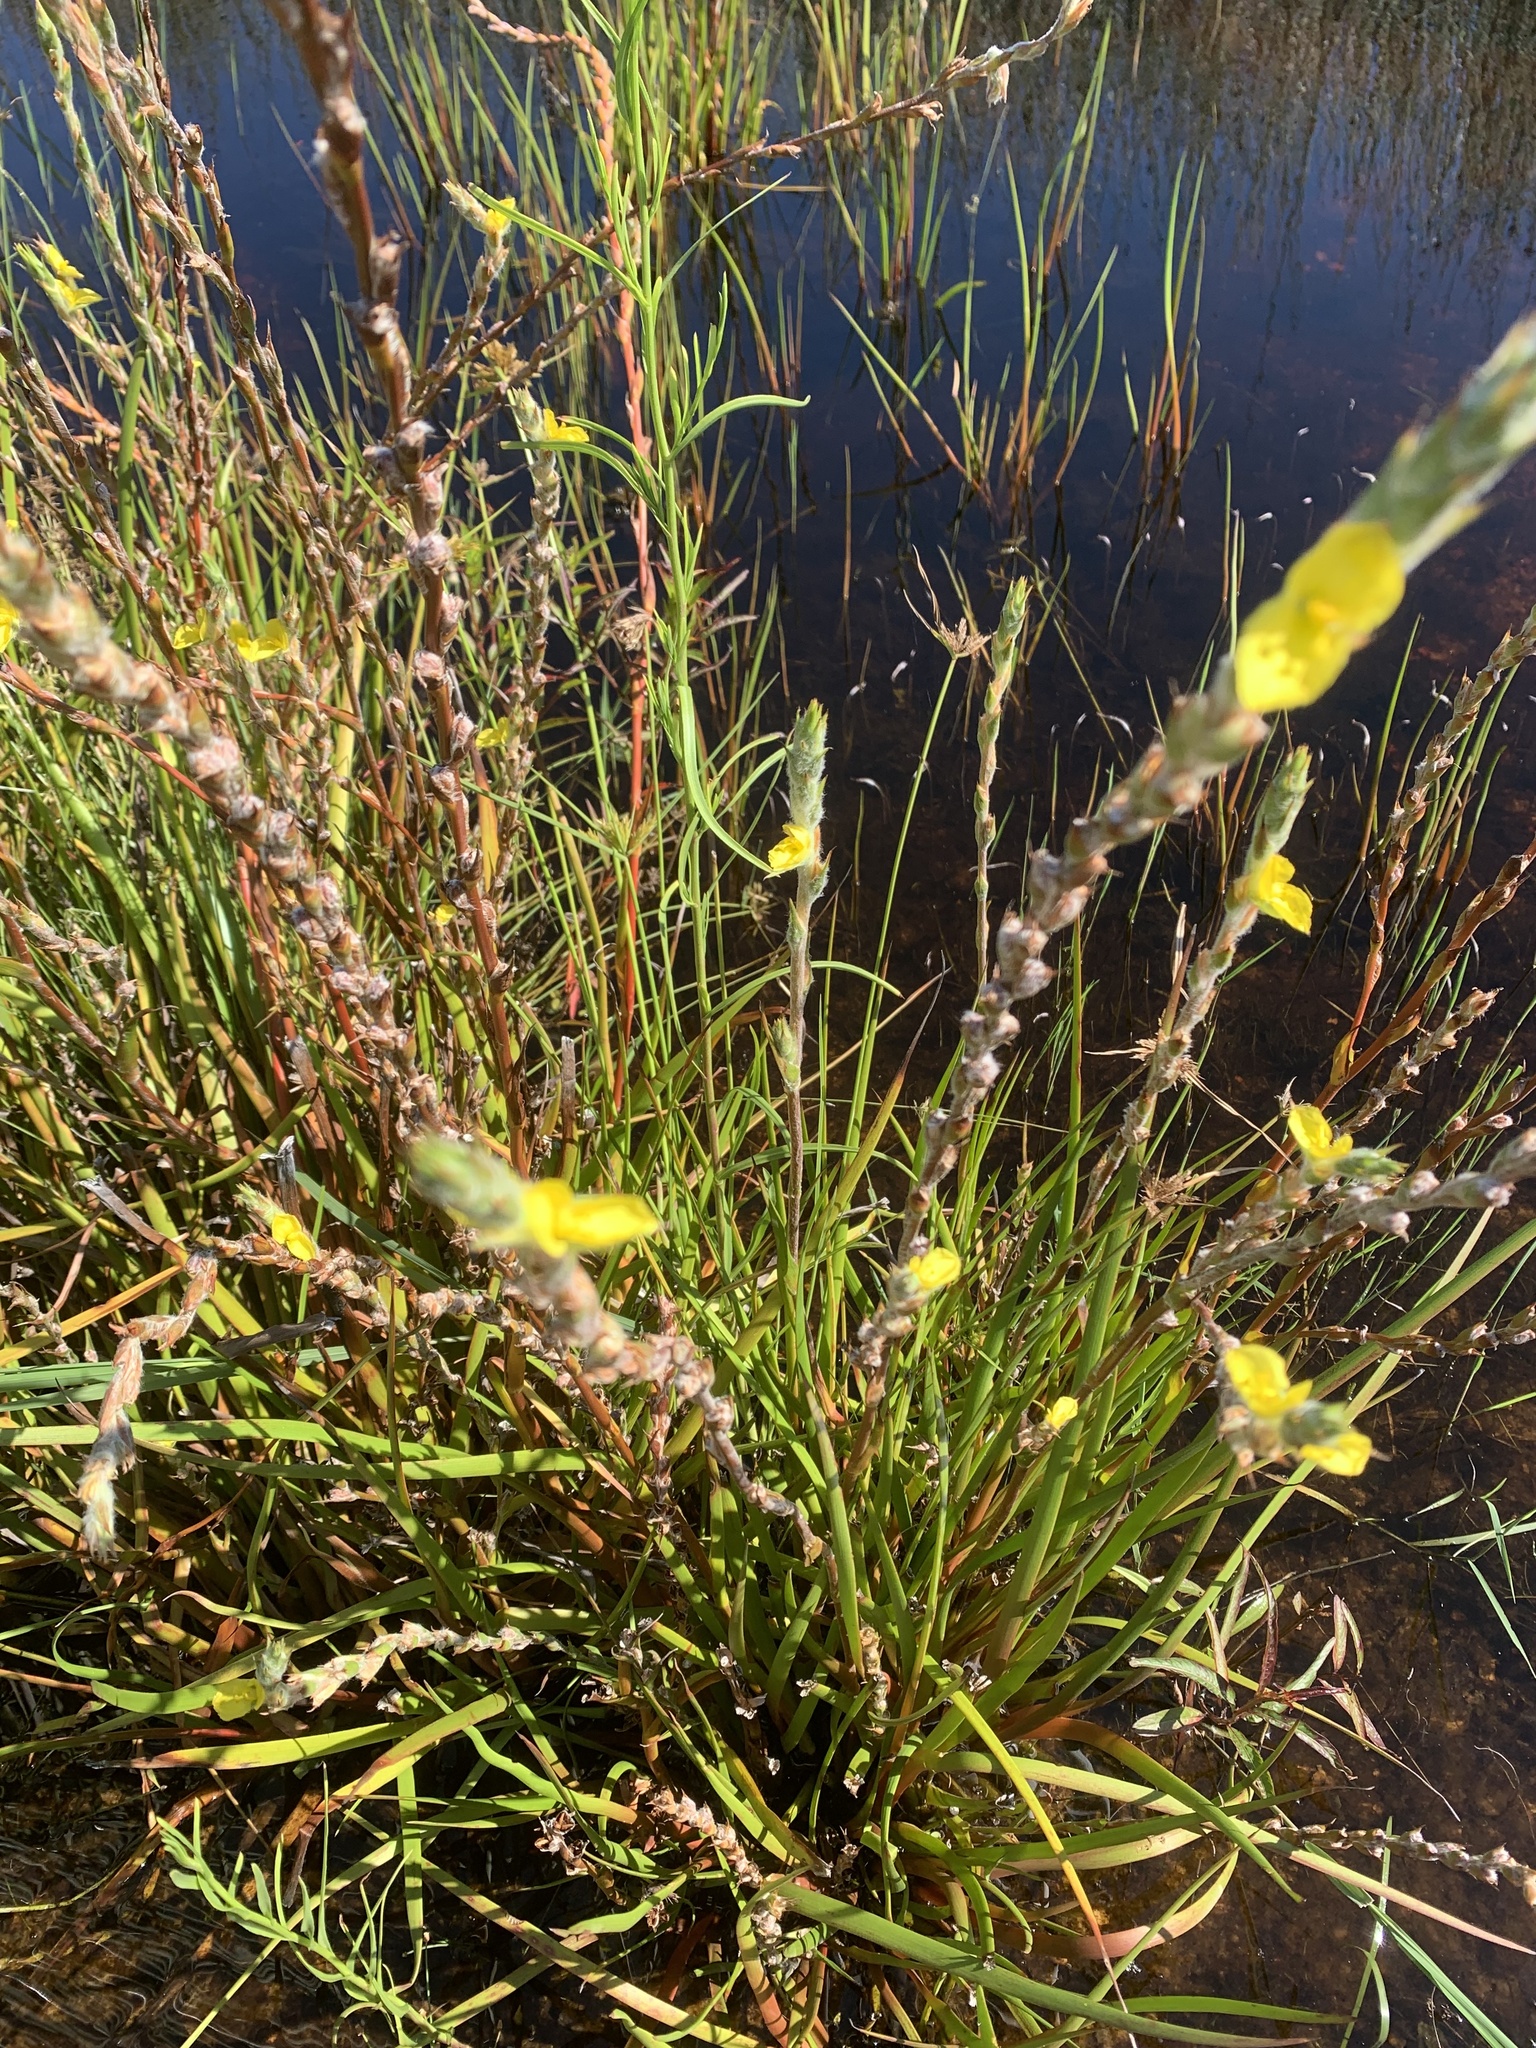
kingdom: Plantae
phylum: Tracheophyta
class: Liliopsida
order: Commelinales
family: Philydraceae
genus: Philydrum
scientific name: Philydrum lanuginosum
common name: Woolly frog's mouth
